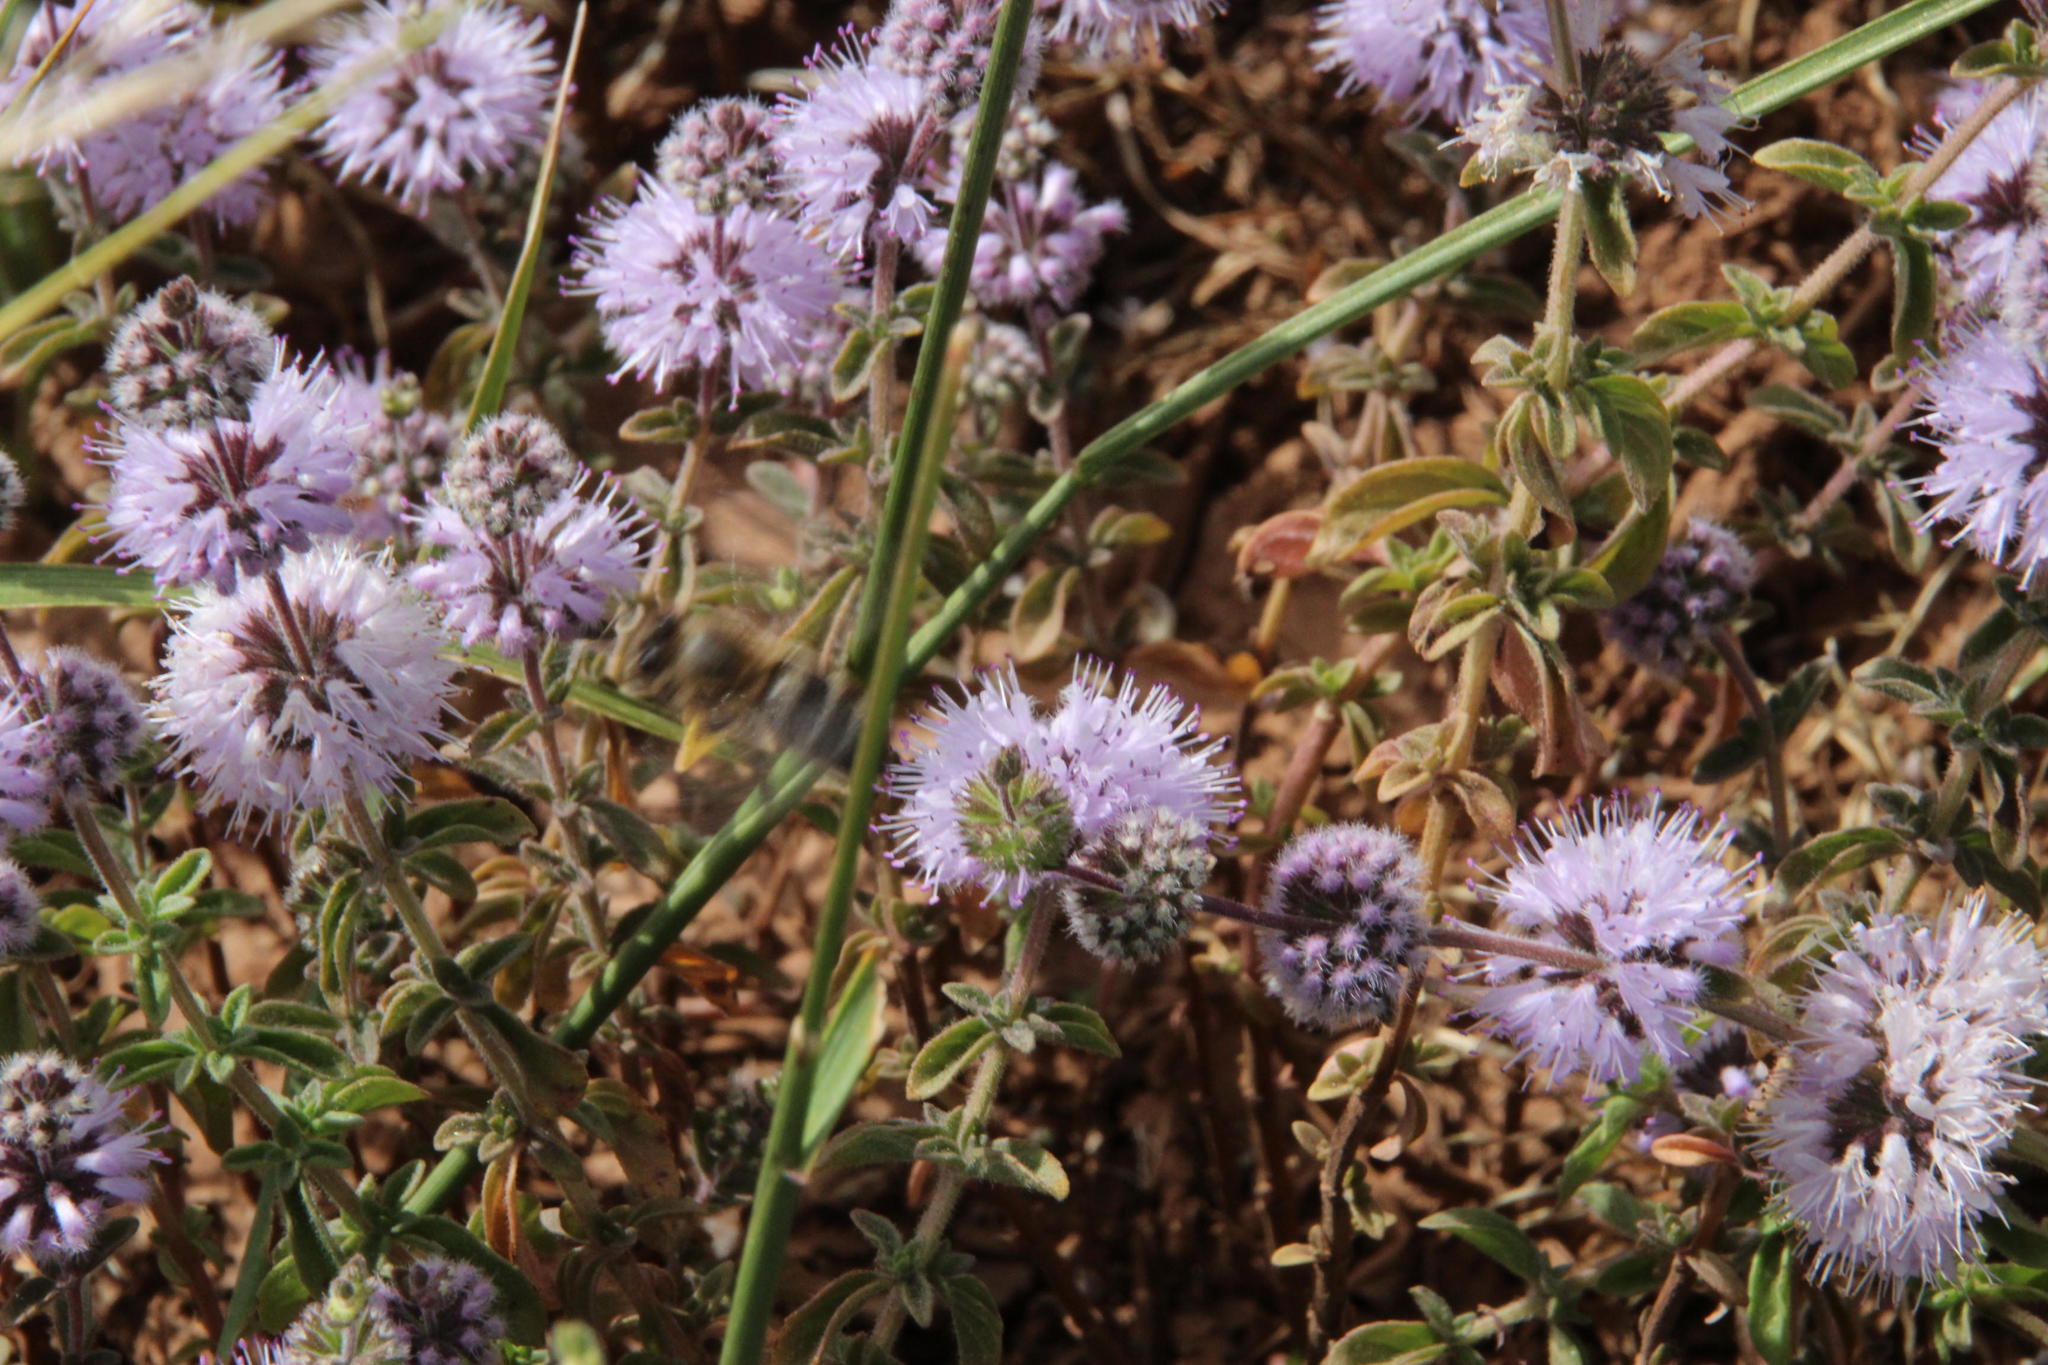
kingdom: Plantae
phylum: Tracheophyta
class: Magnoliopsida
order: Lamiales
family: Lamiaceae
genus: Mentha
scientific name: Mentha pulegium
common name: Pennyroyal
